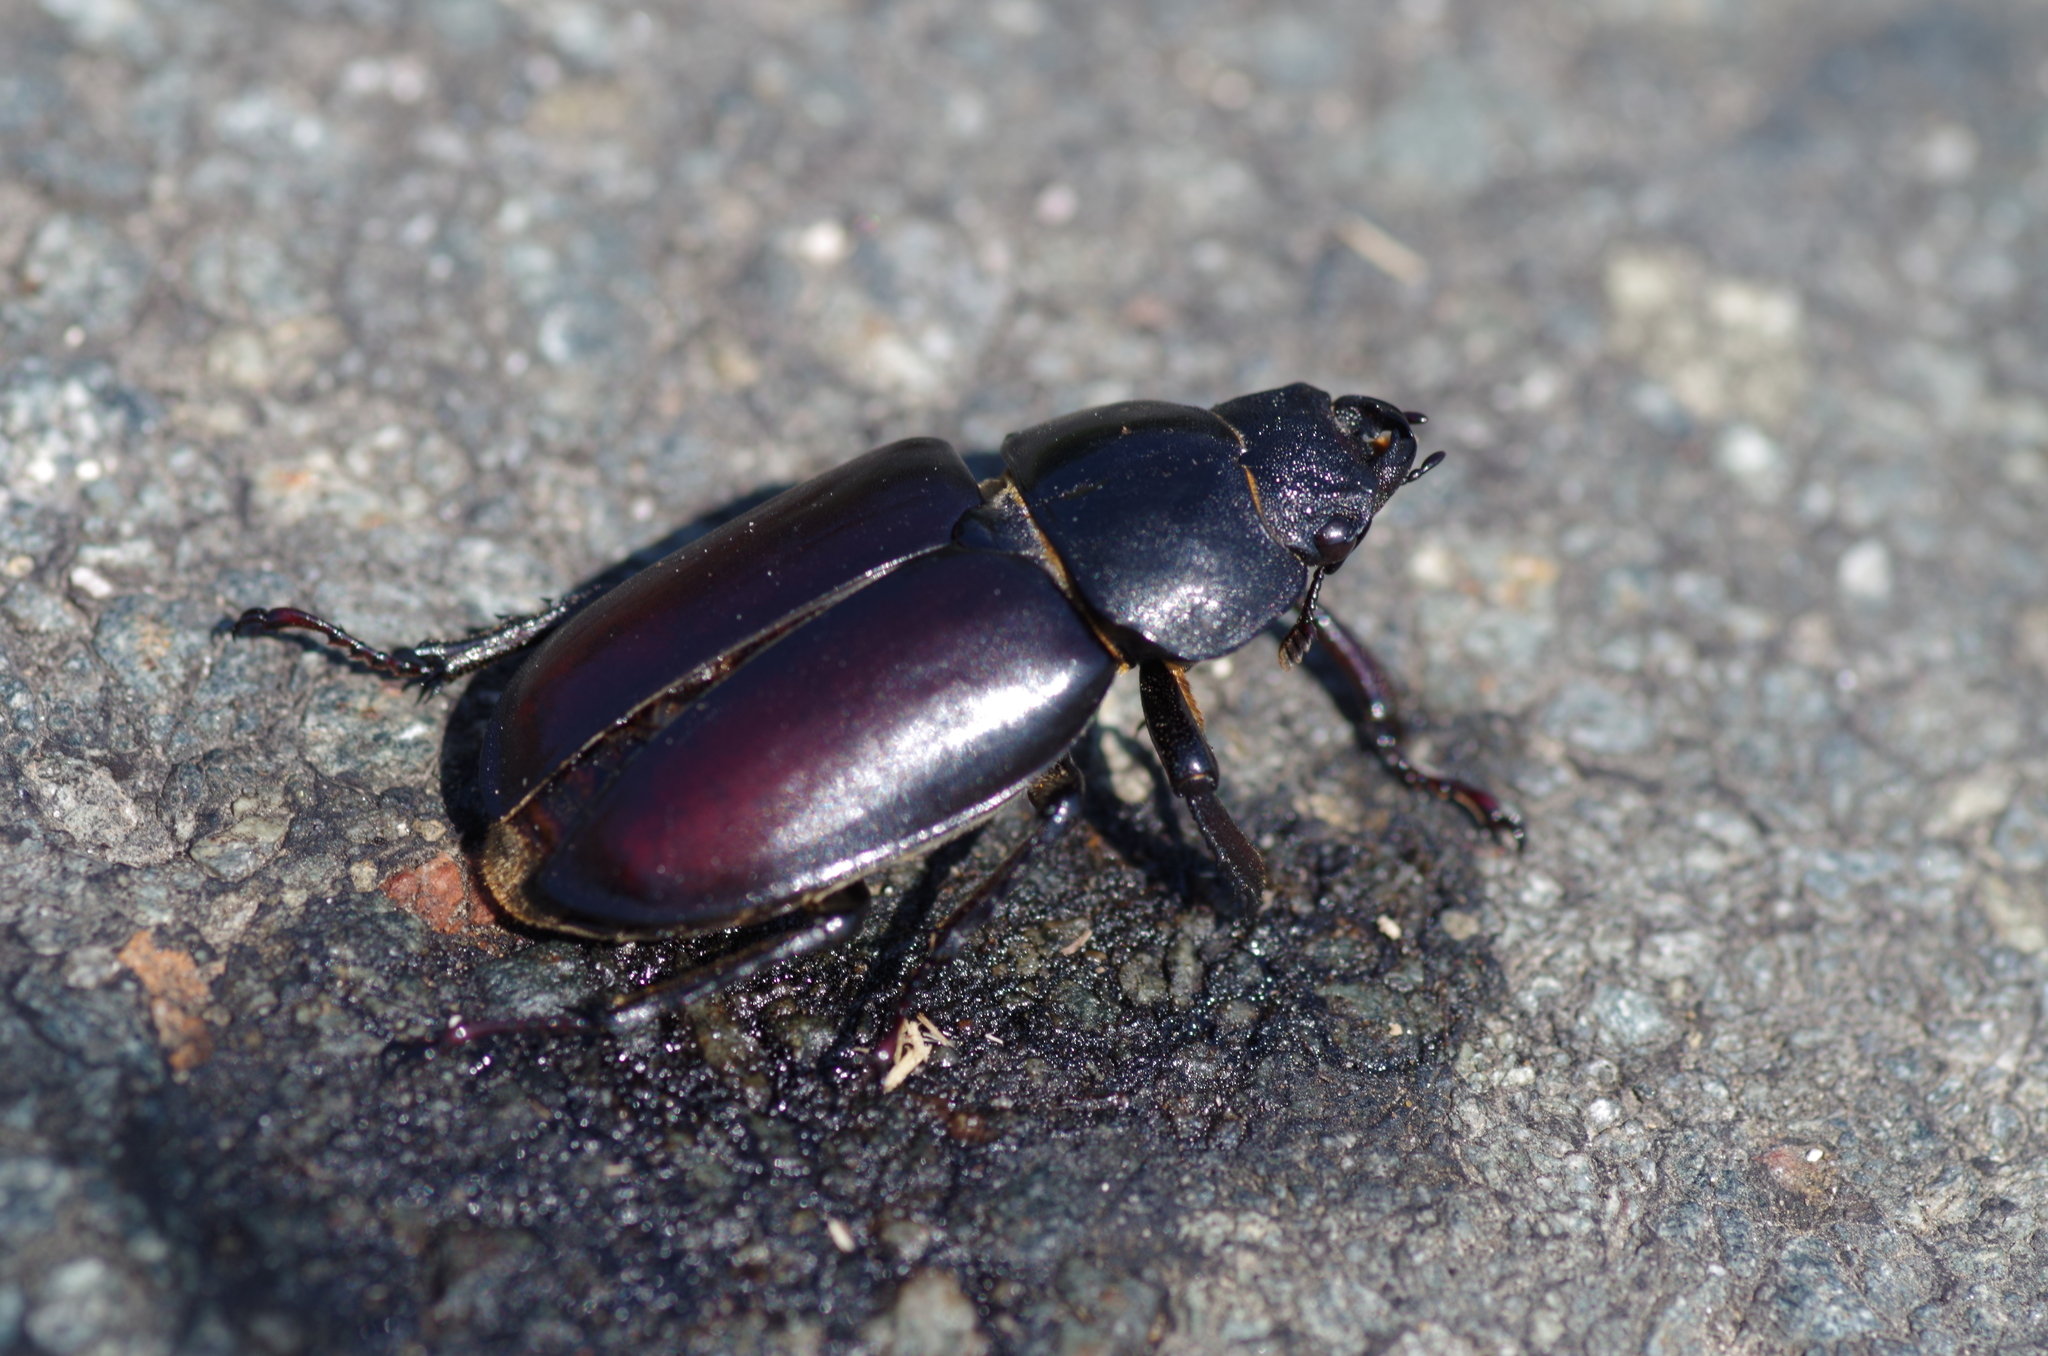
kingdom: Animalia
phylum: Arthropoda
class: Insecta
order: Coleoptera
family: Lucanidae
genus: Lucanus
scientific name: Lucanus cervus
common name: Stag beetle
